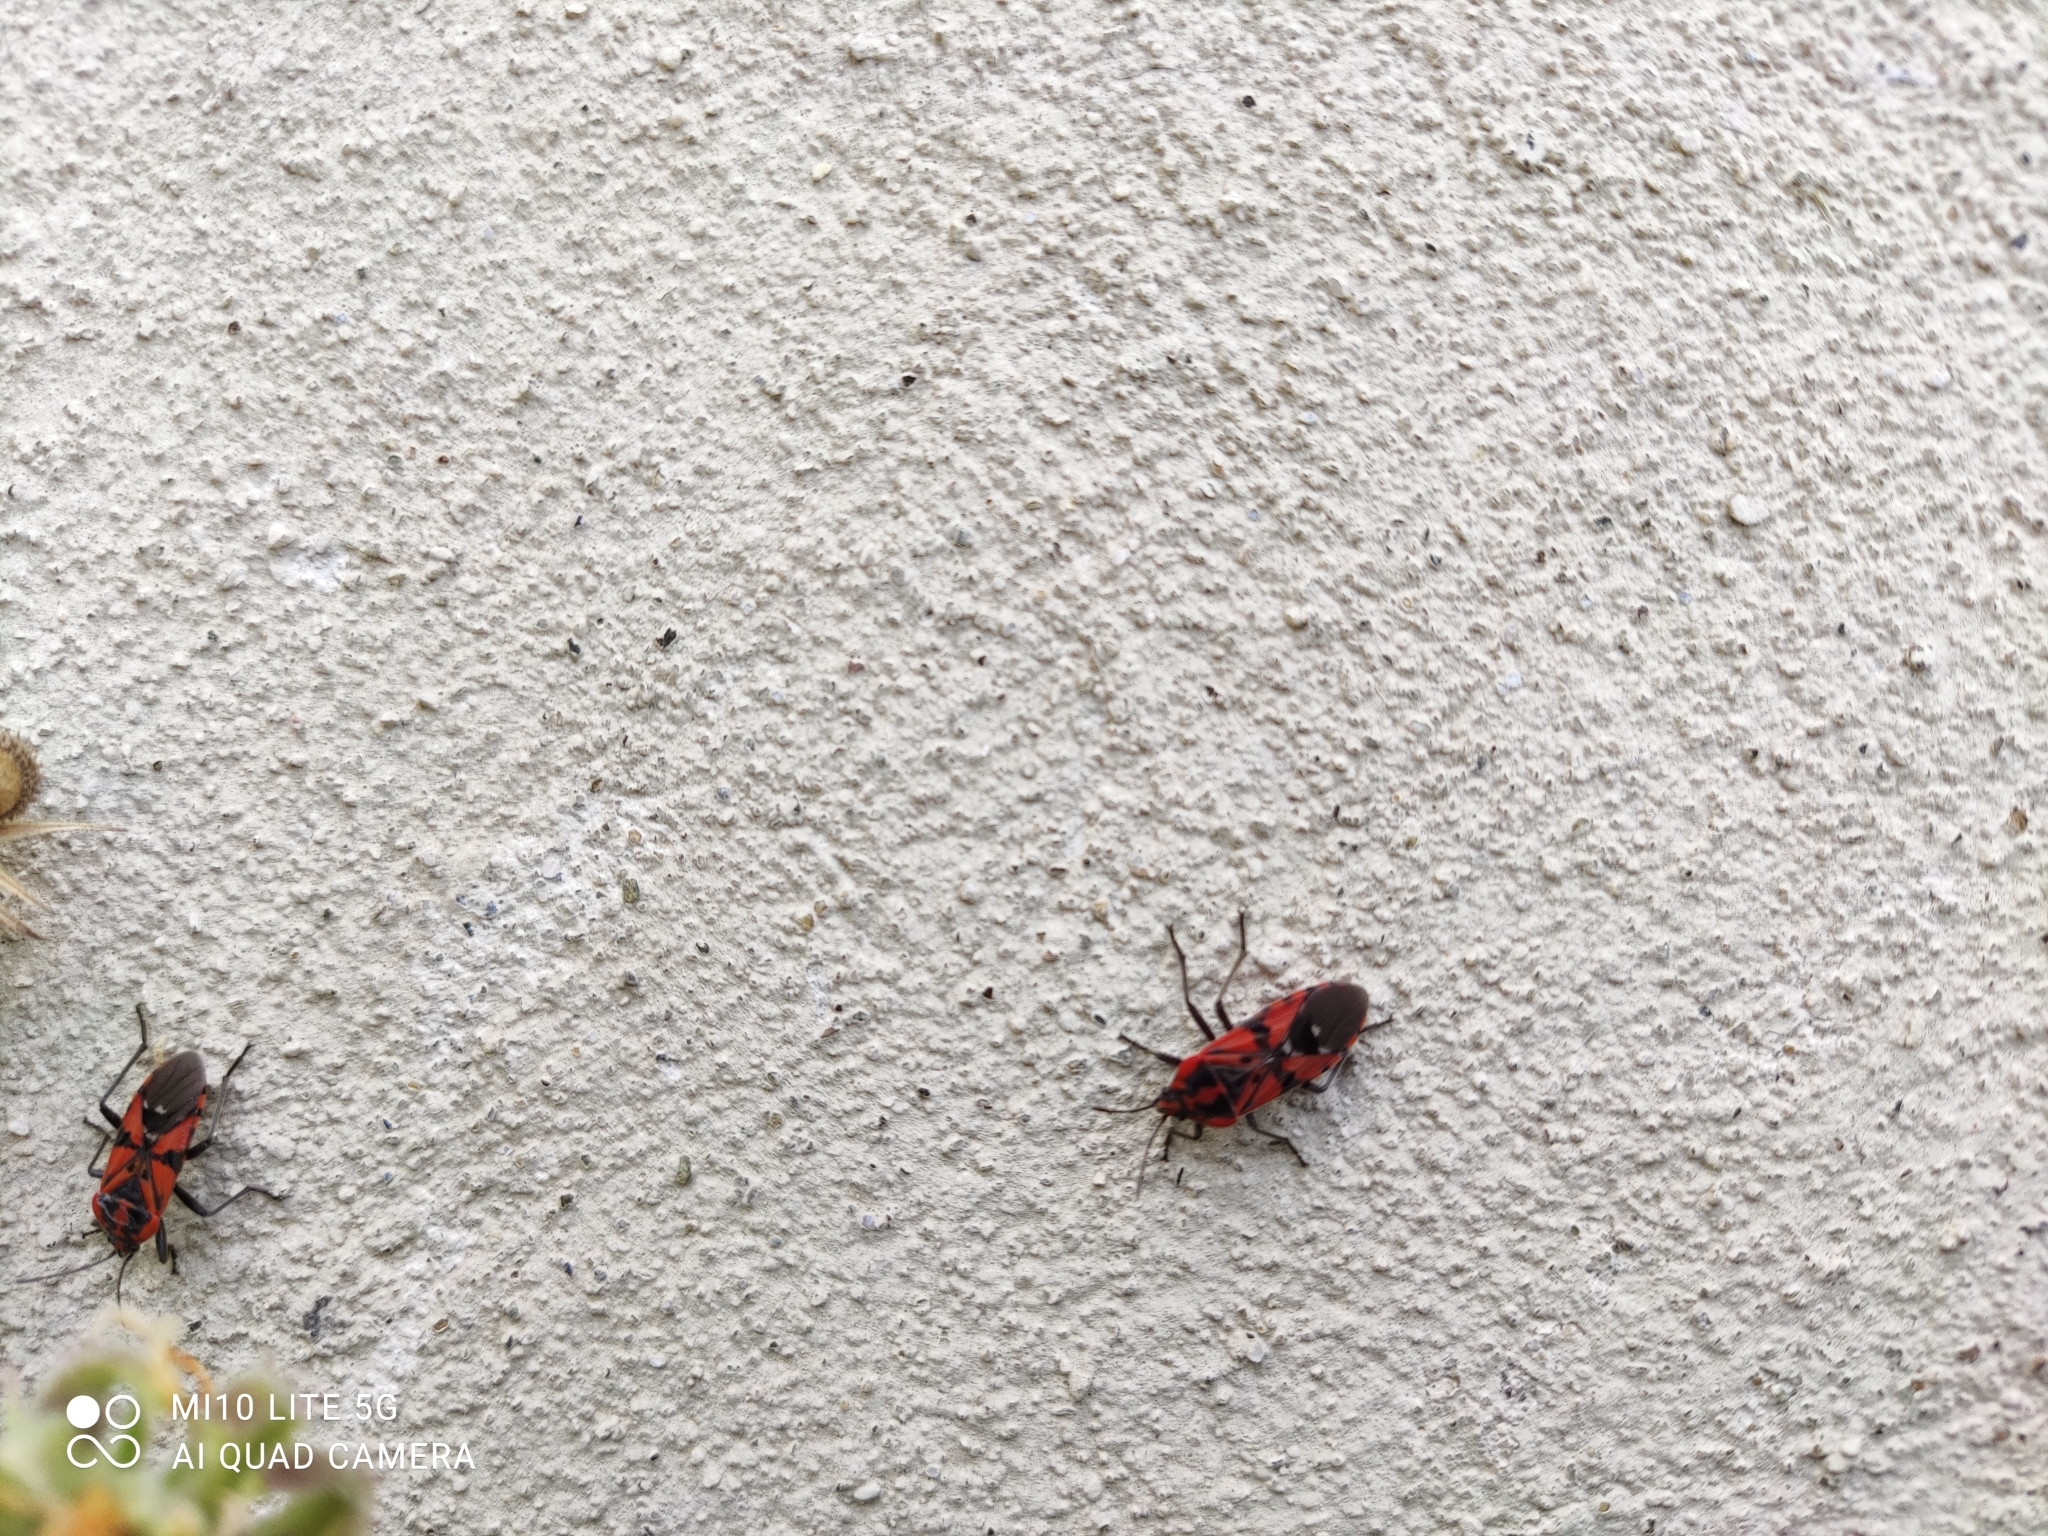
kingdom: Animalia
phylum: Arthropoda
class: Insecta
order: Hemiptera
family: Lygaeidae
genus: Spilostethus
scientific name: Spilostethus pandurus
